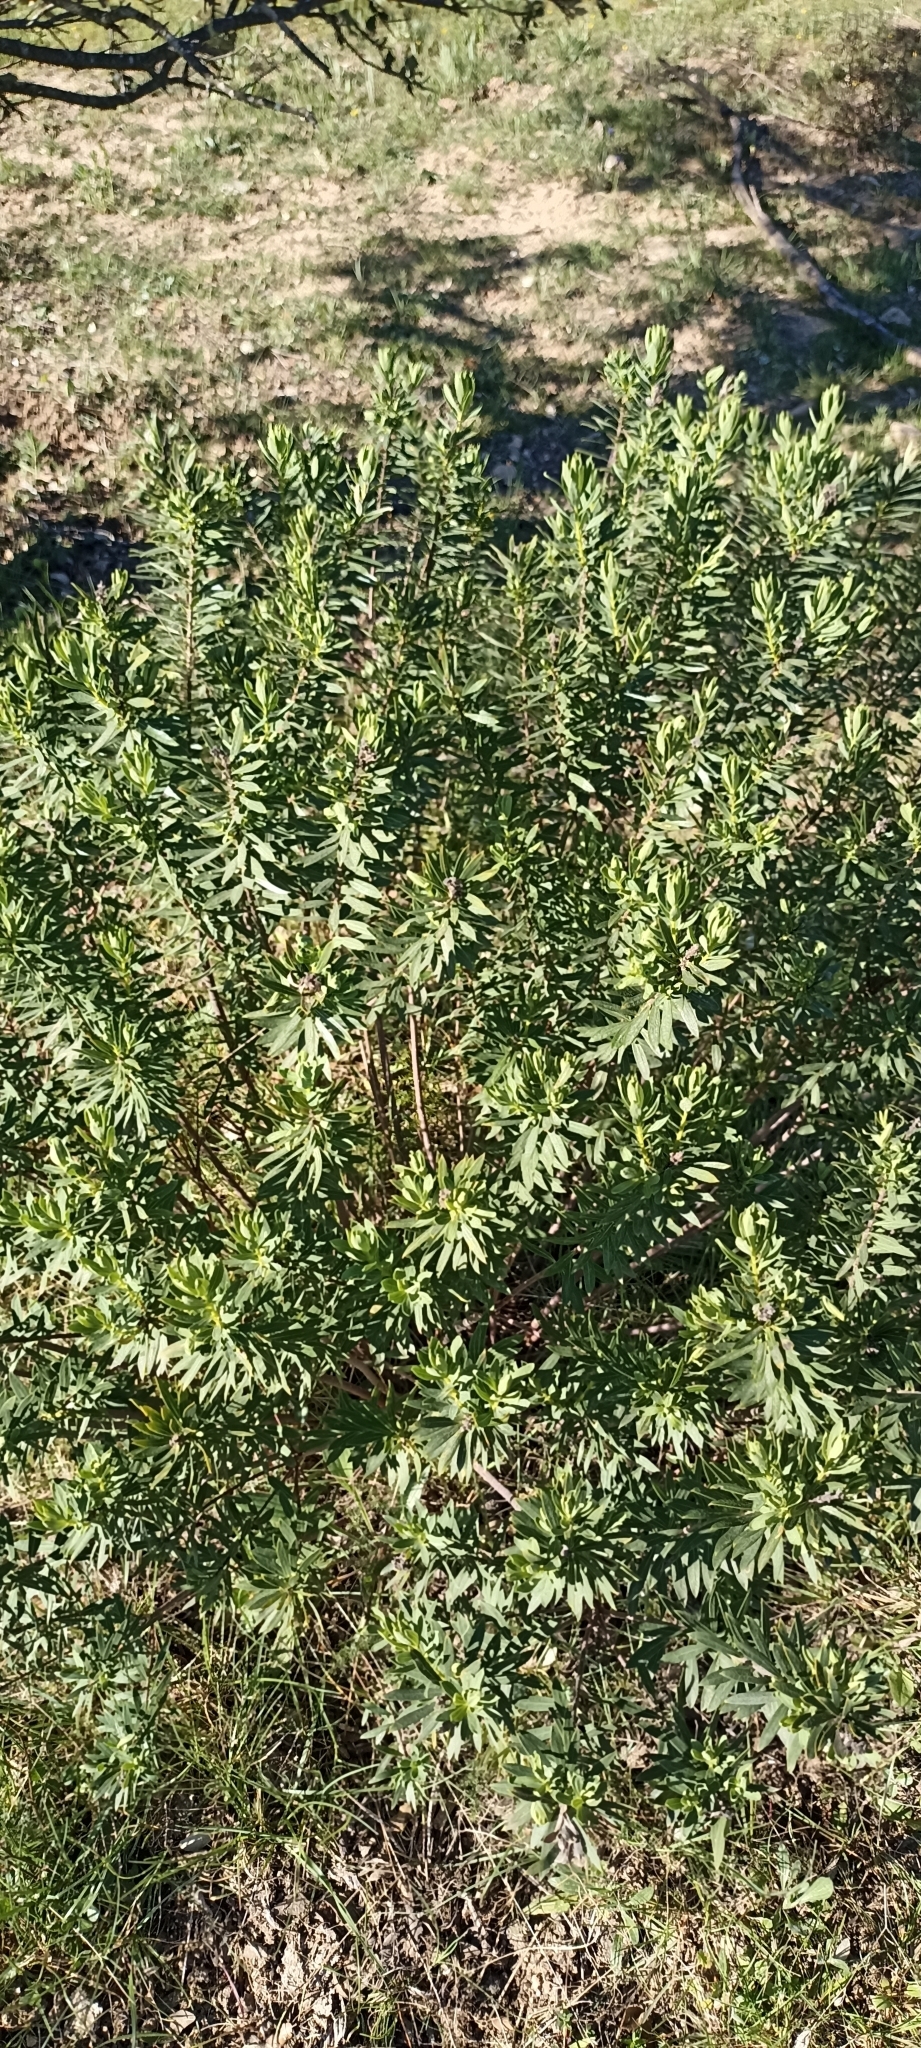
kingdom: Plantae
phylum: Tracheophyta
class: Magnoliopsida
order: Malvales
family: Thymelaeaceae
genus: Daphne
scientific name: Daphne gnidium
